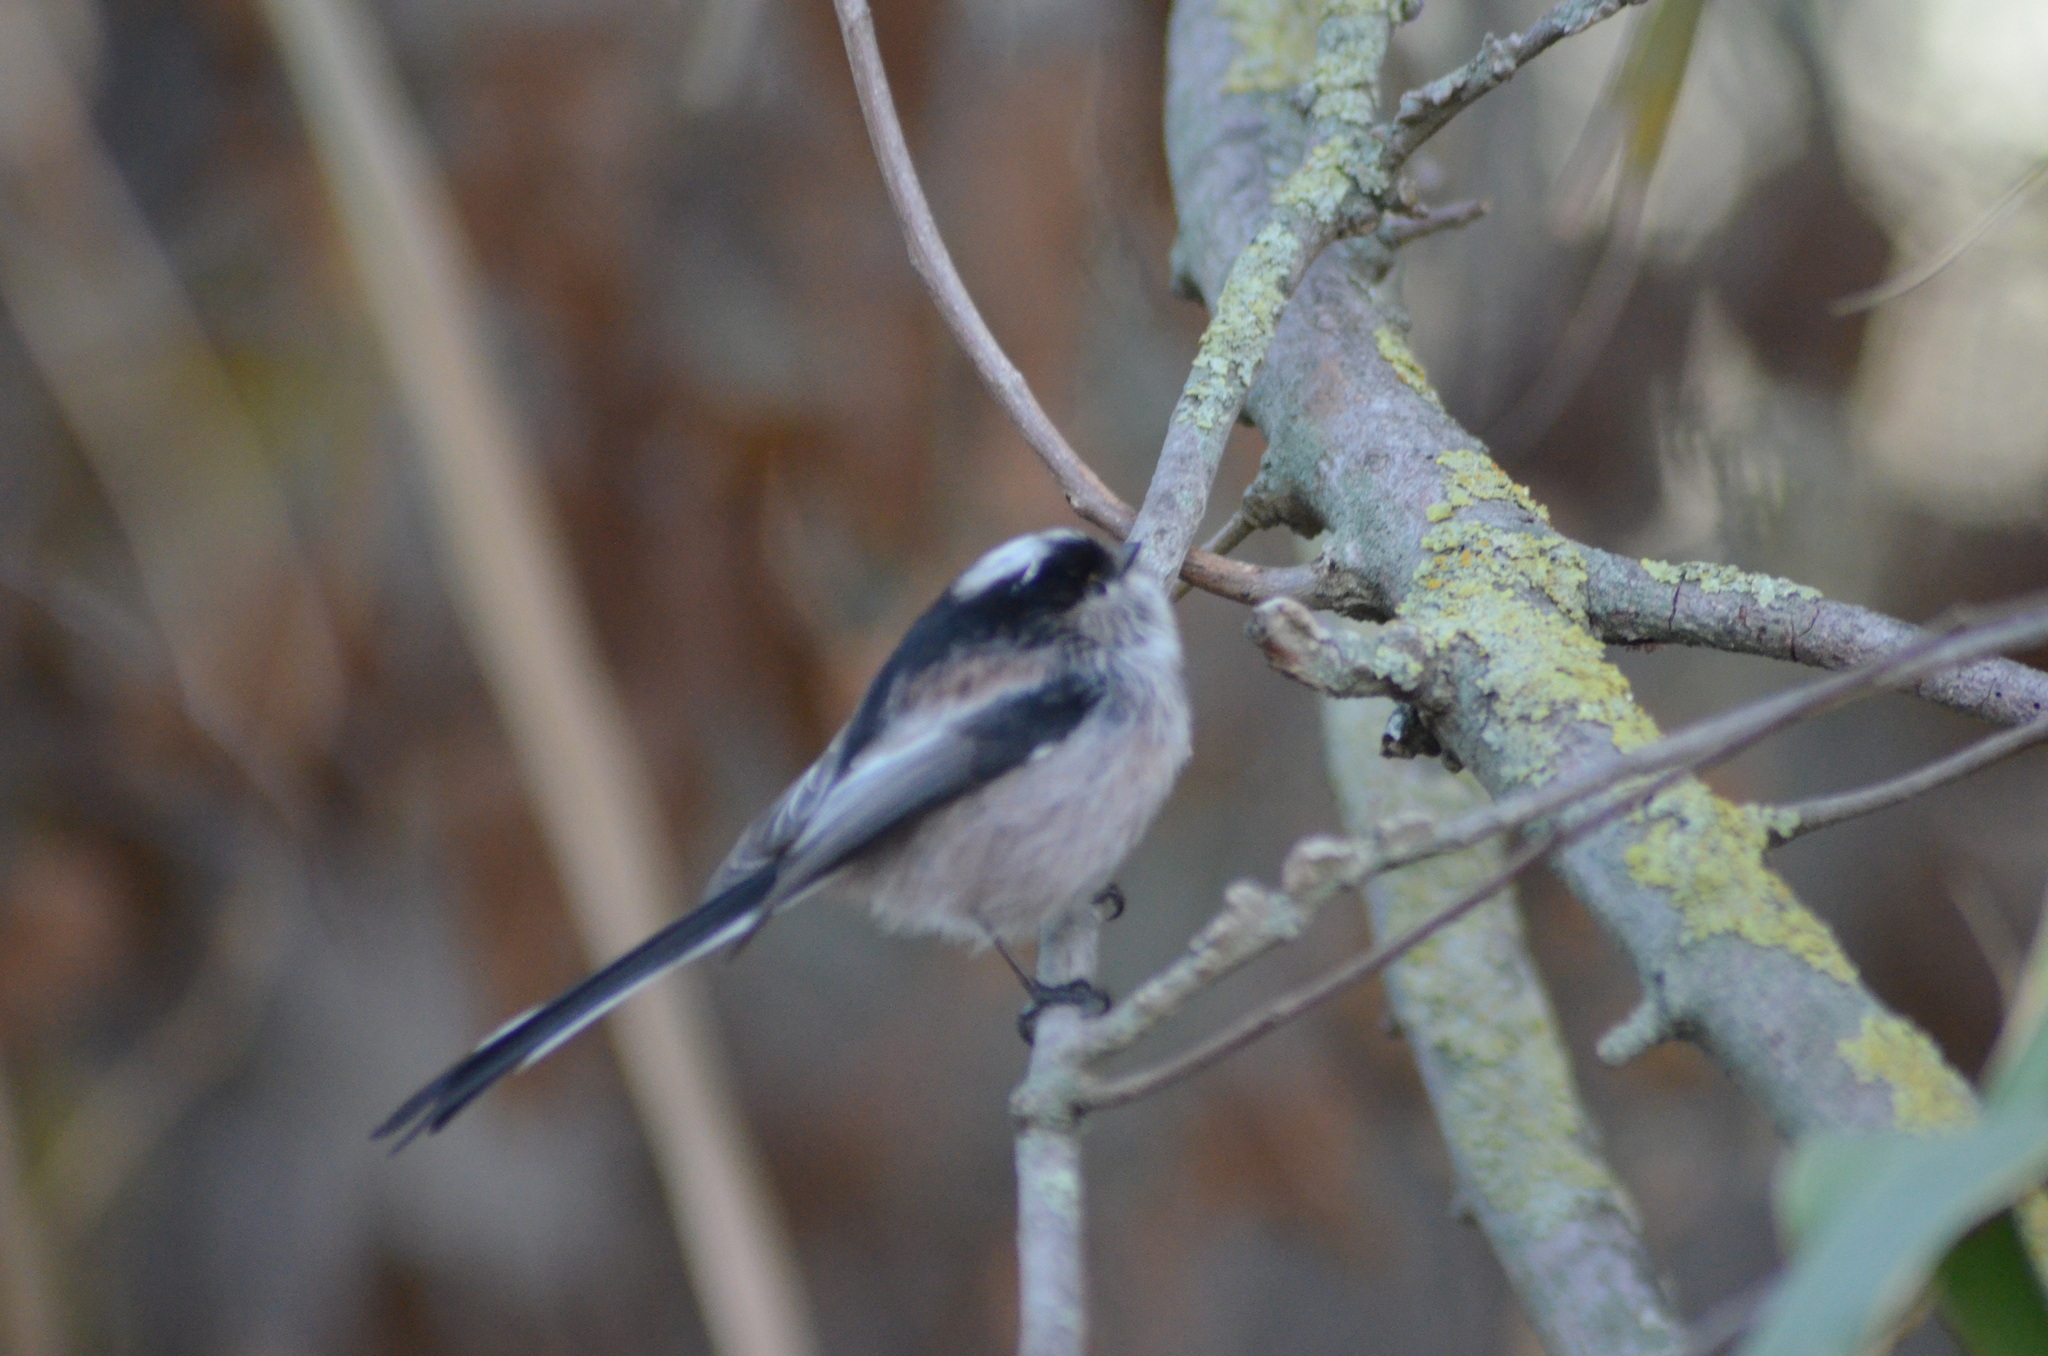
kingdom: Animalia
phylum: Chordata
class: Aves
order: Passeriformes
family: Aegithalidae
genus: Aegithalos
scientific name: Aegithalos caudatus
